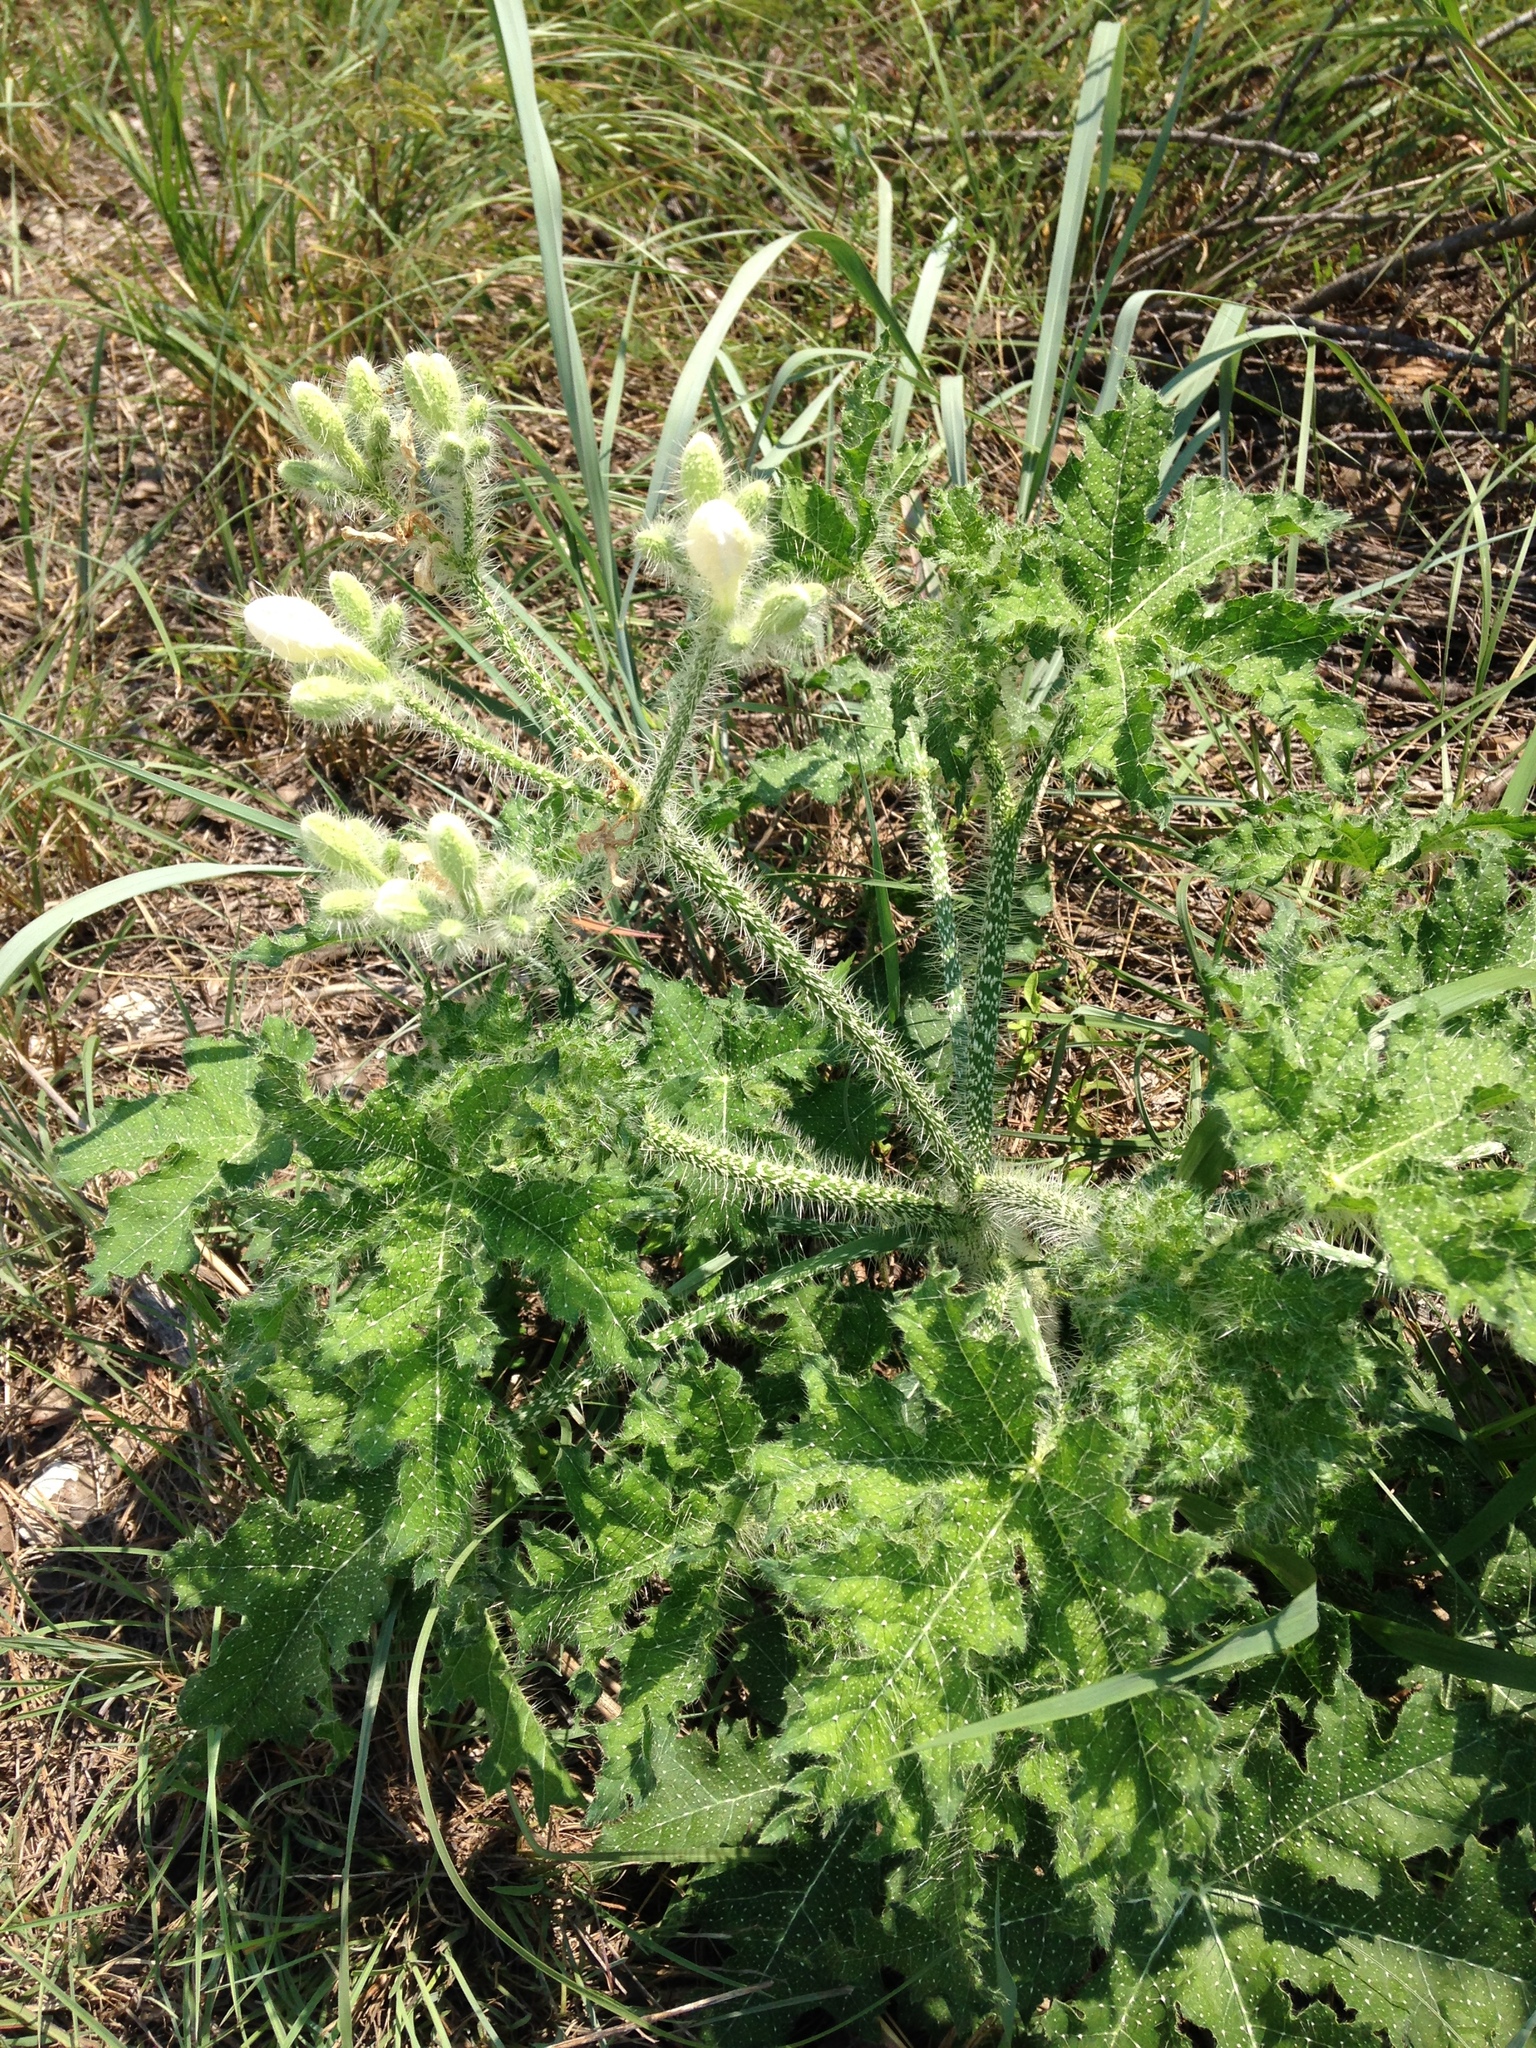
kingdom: Plantae
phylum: Tracheophyta
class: Magnoliopsida
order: Malpighiales
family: Euphorbiaceae
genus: Cnidoscolus
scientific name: Cnidoscolus texanus
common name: Texas bull-nettle
